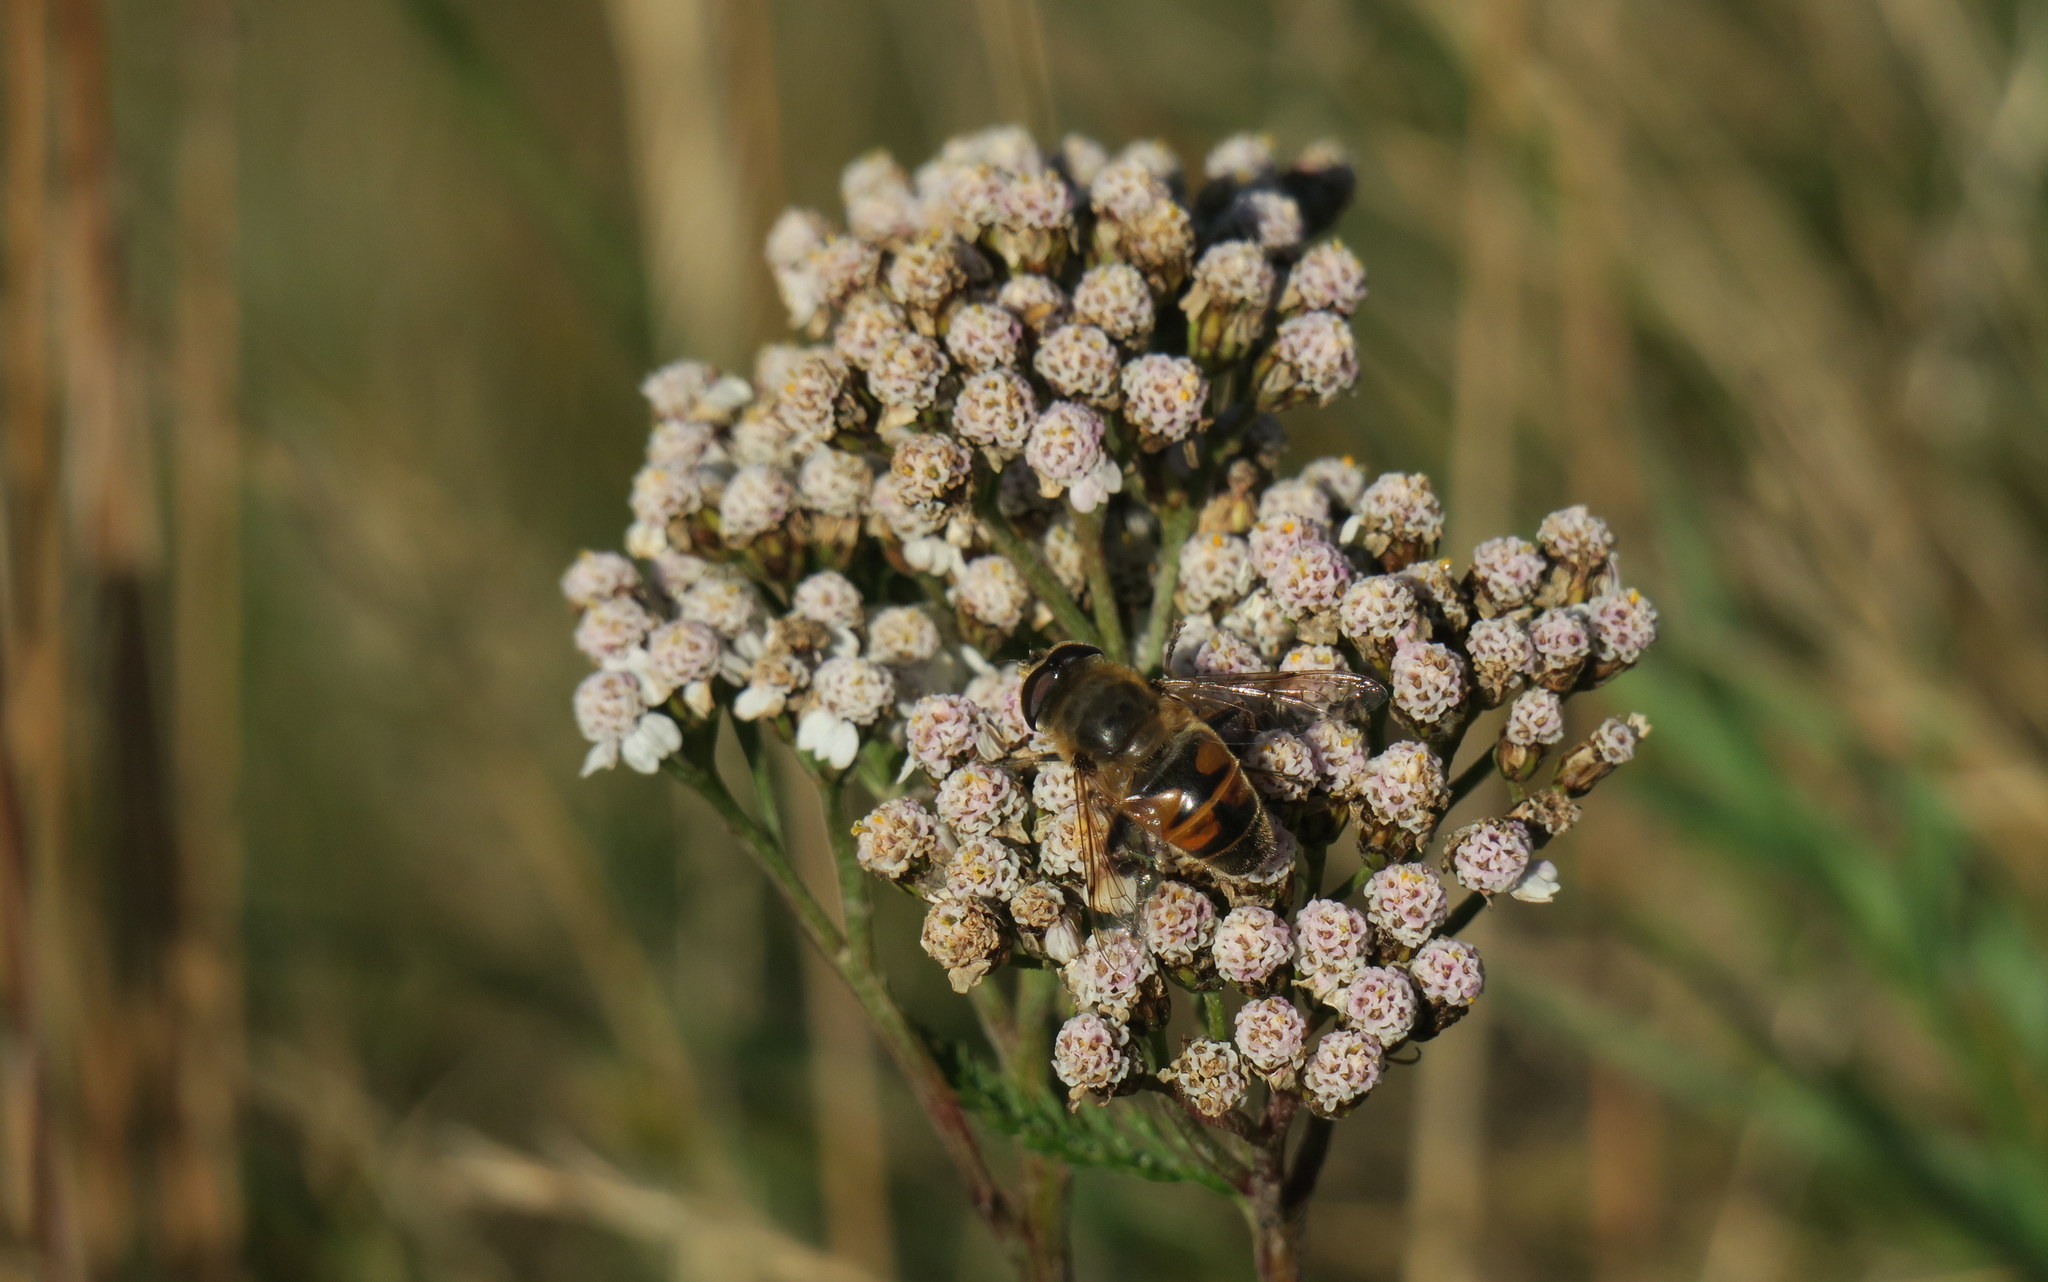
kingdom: Animalia
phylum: Arthropoda
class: Insecta
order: Diptera
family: Syrphidae
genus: Eristalis
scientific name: Eristalis tenax
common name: Drone fly
